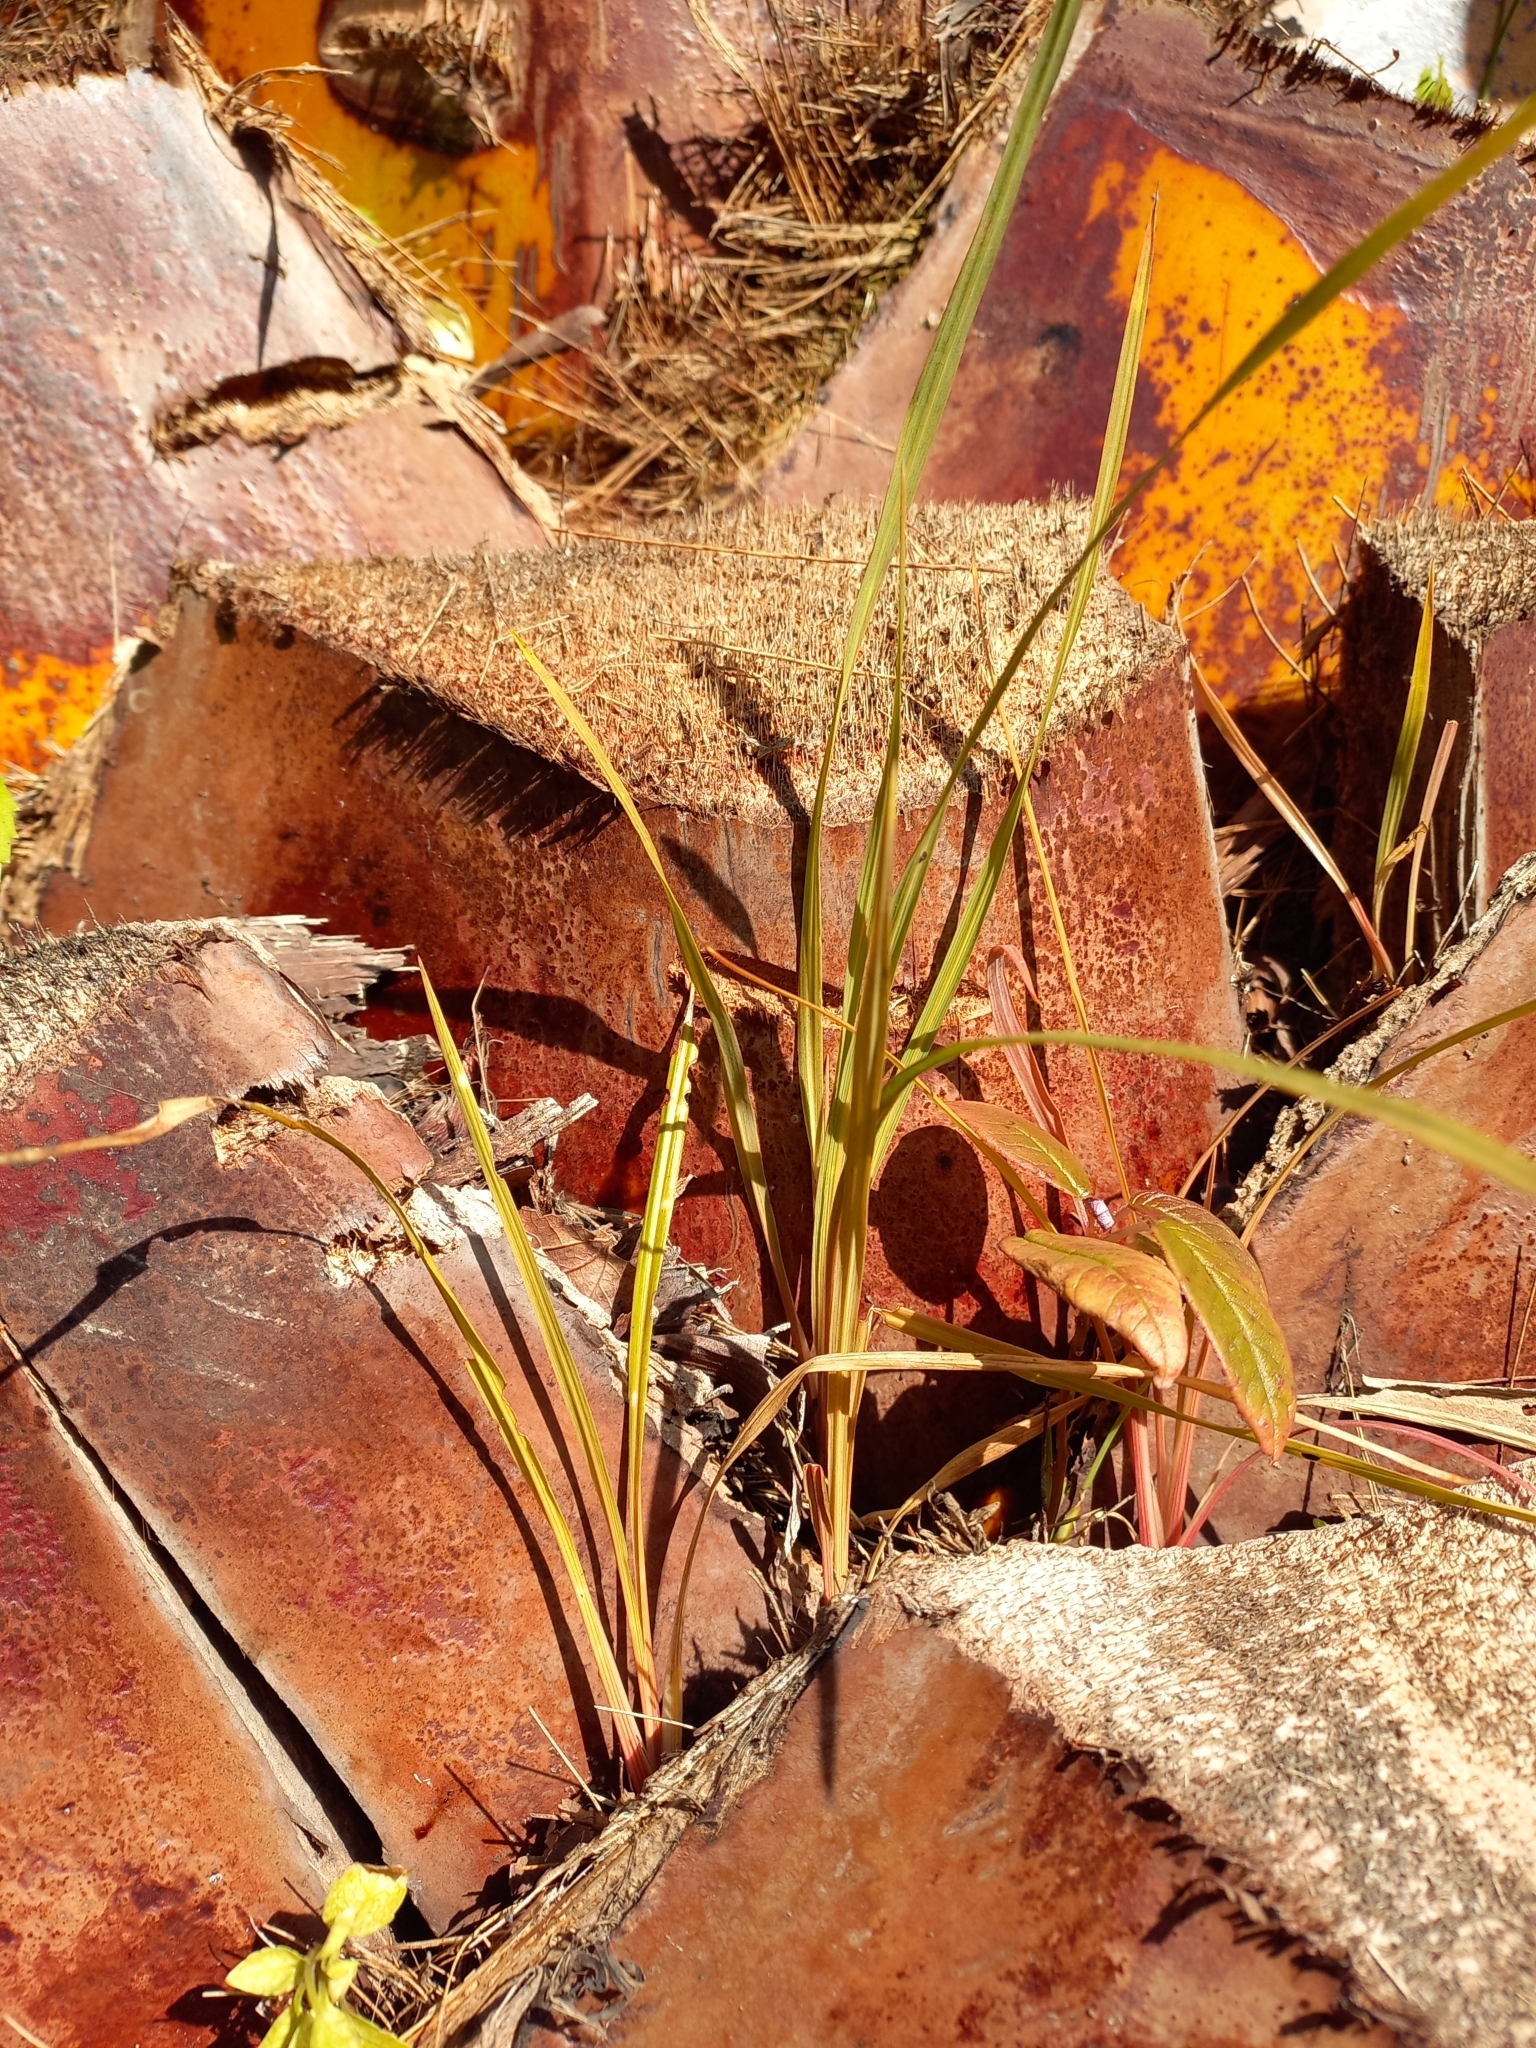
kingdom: Plantae
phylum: Tracheophyta
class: Liliopsida
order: Asparagales
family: Asparagaceae
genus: Cordyline
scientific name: Cordyline australis
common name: Cabbage-palm
